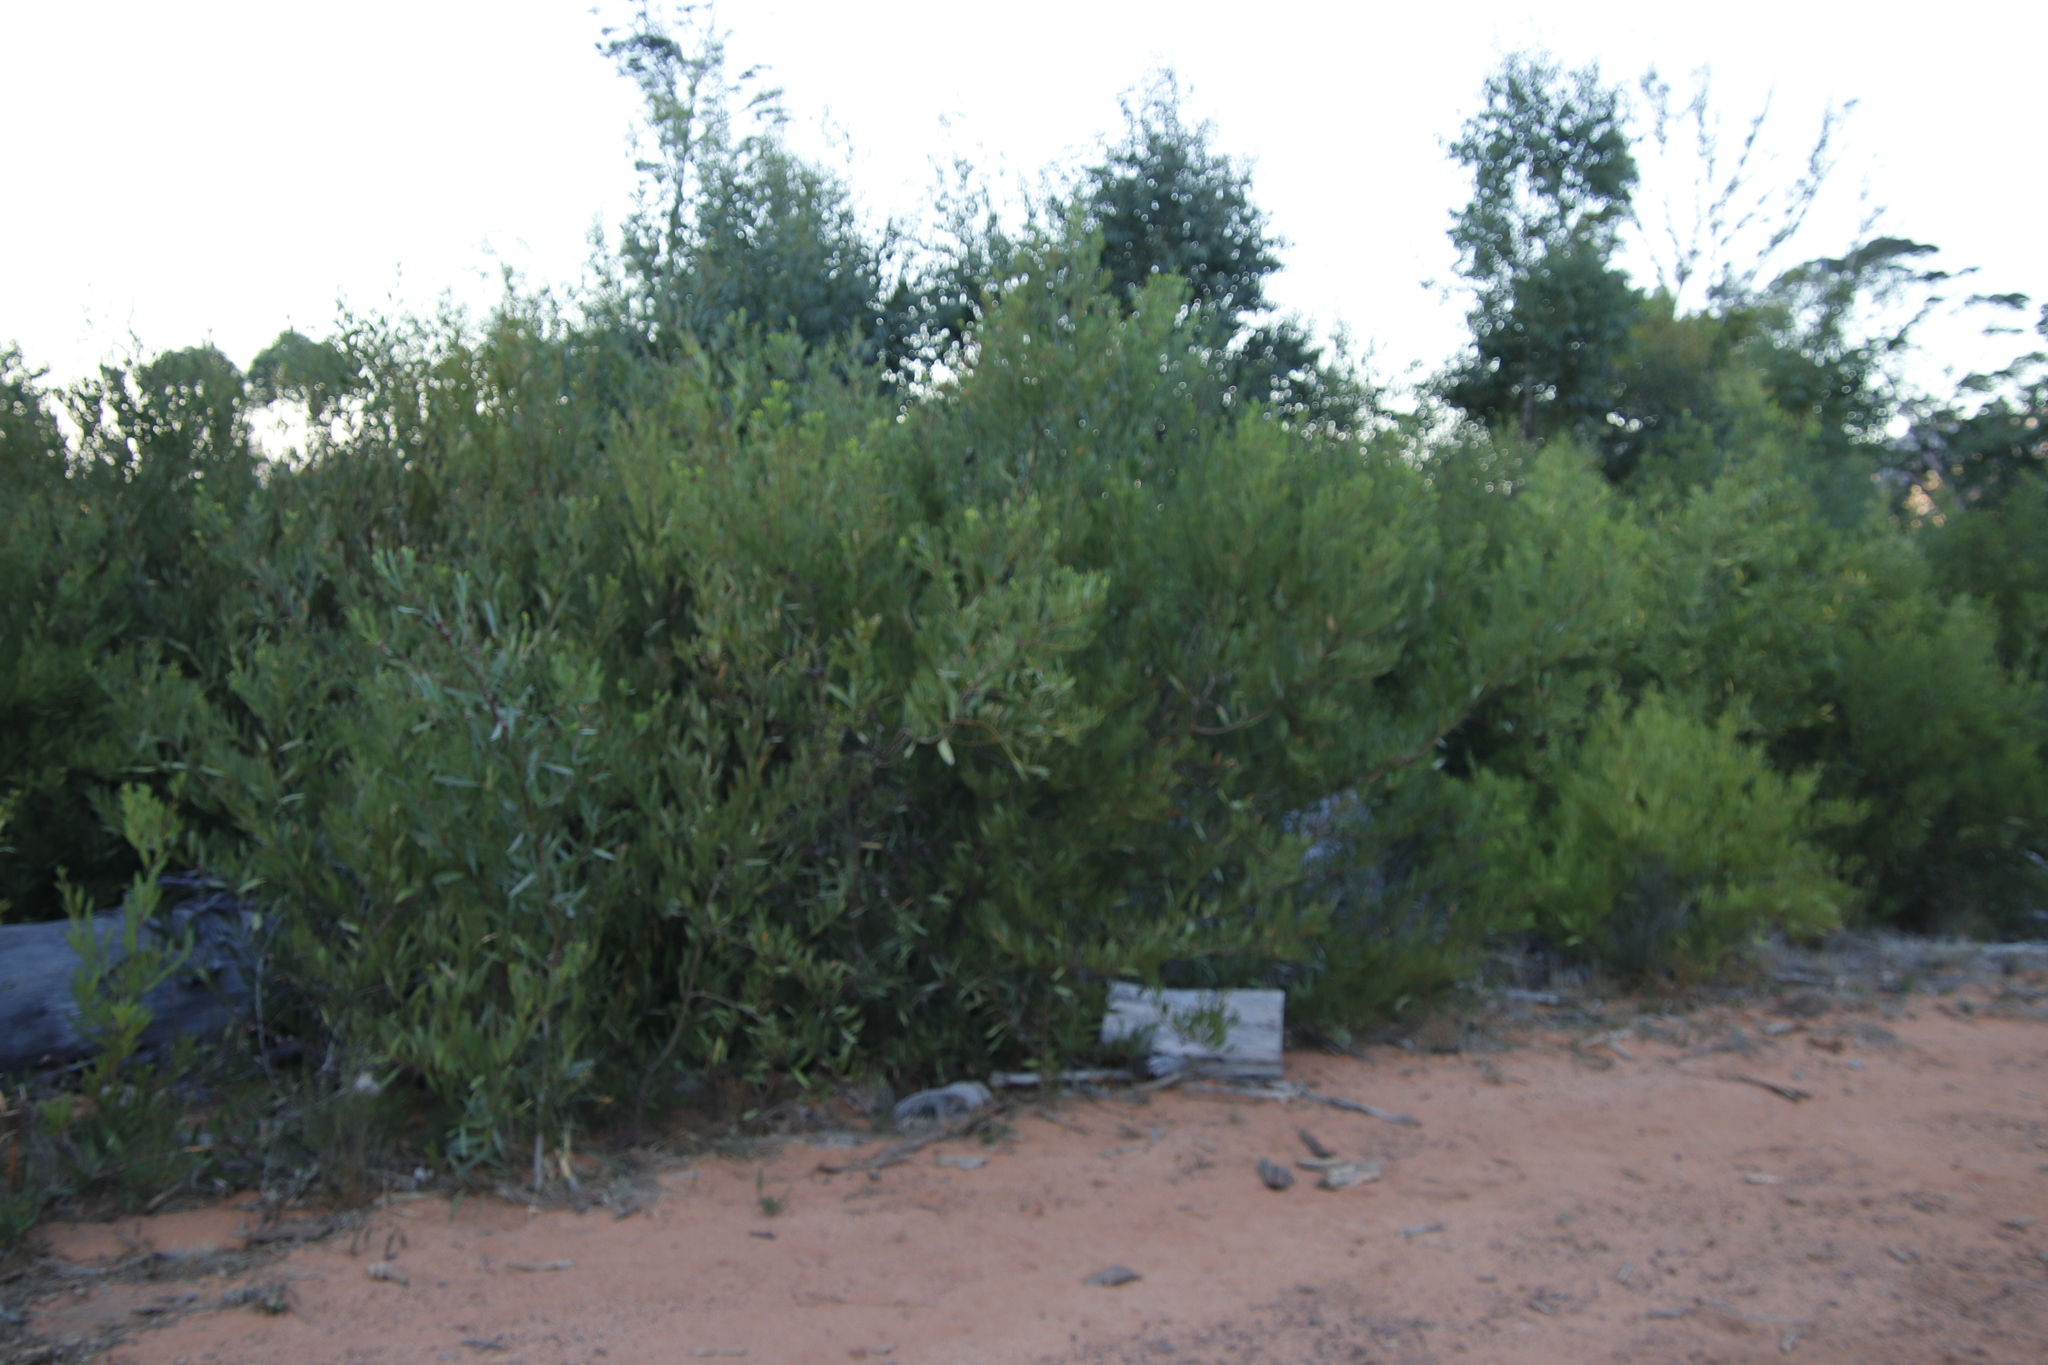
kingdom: Plantae
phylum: Tracheophyta
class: Magnoliopsida
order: Fabales
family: Fabaceae
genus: Acacia
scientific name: Acacia longifolia
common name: Sydney golden wattle
